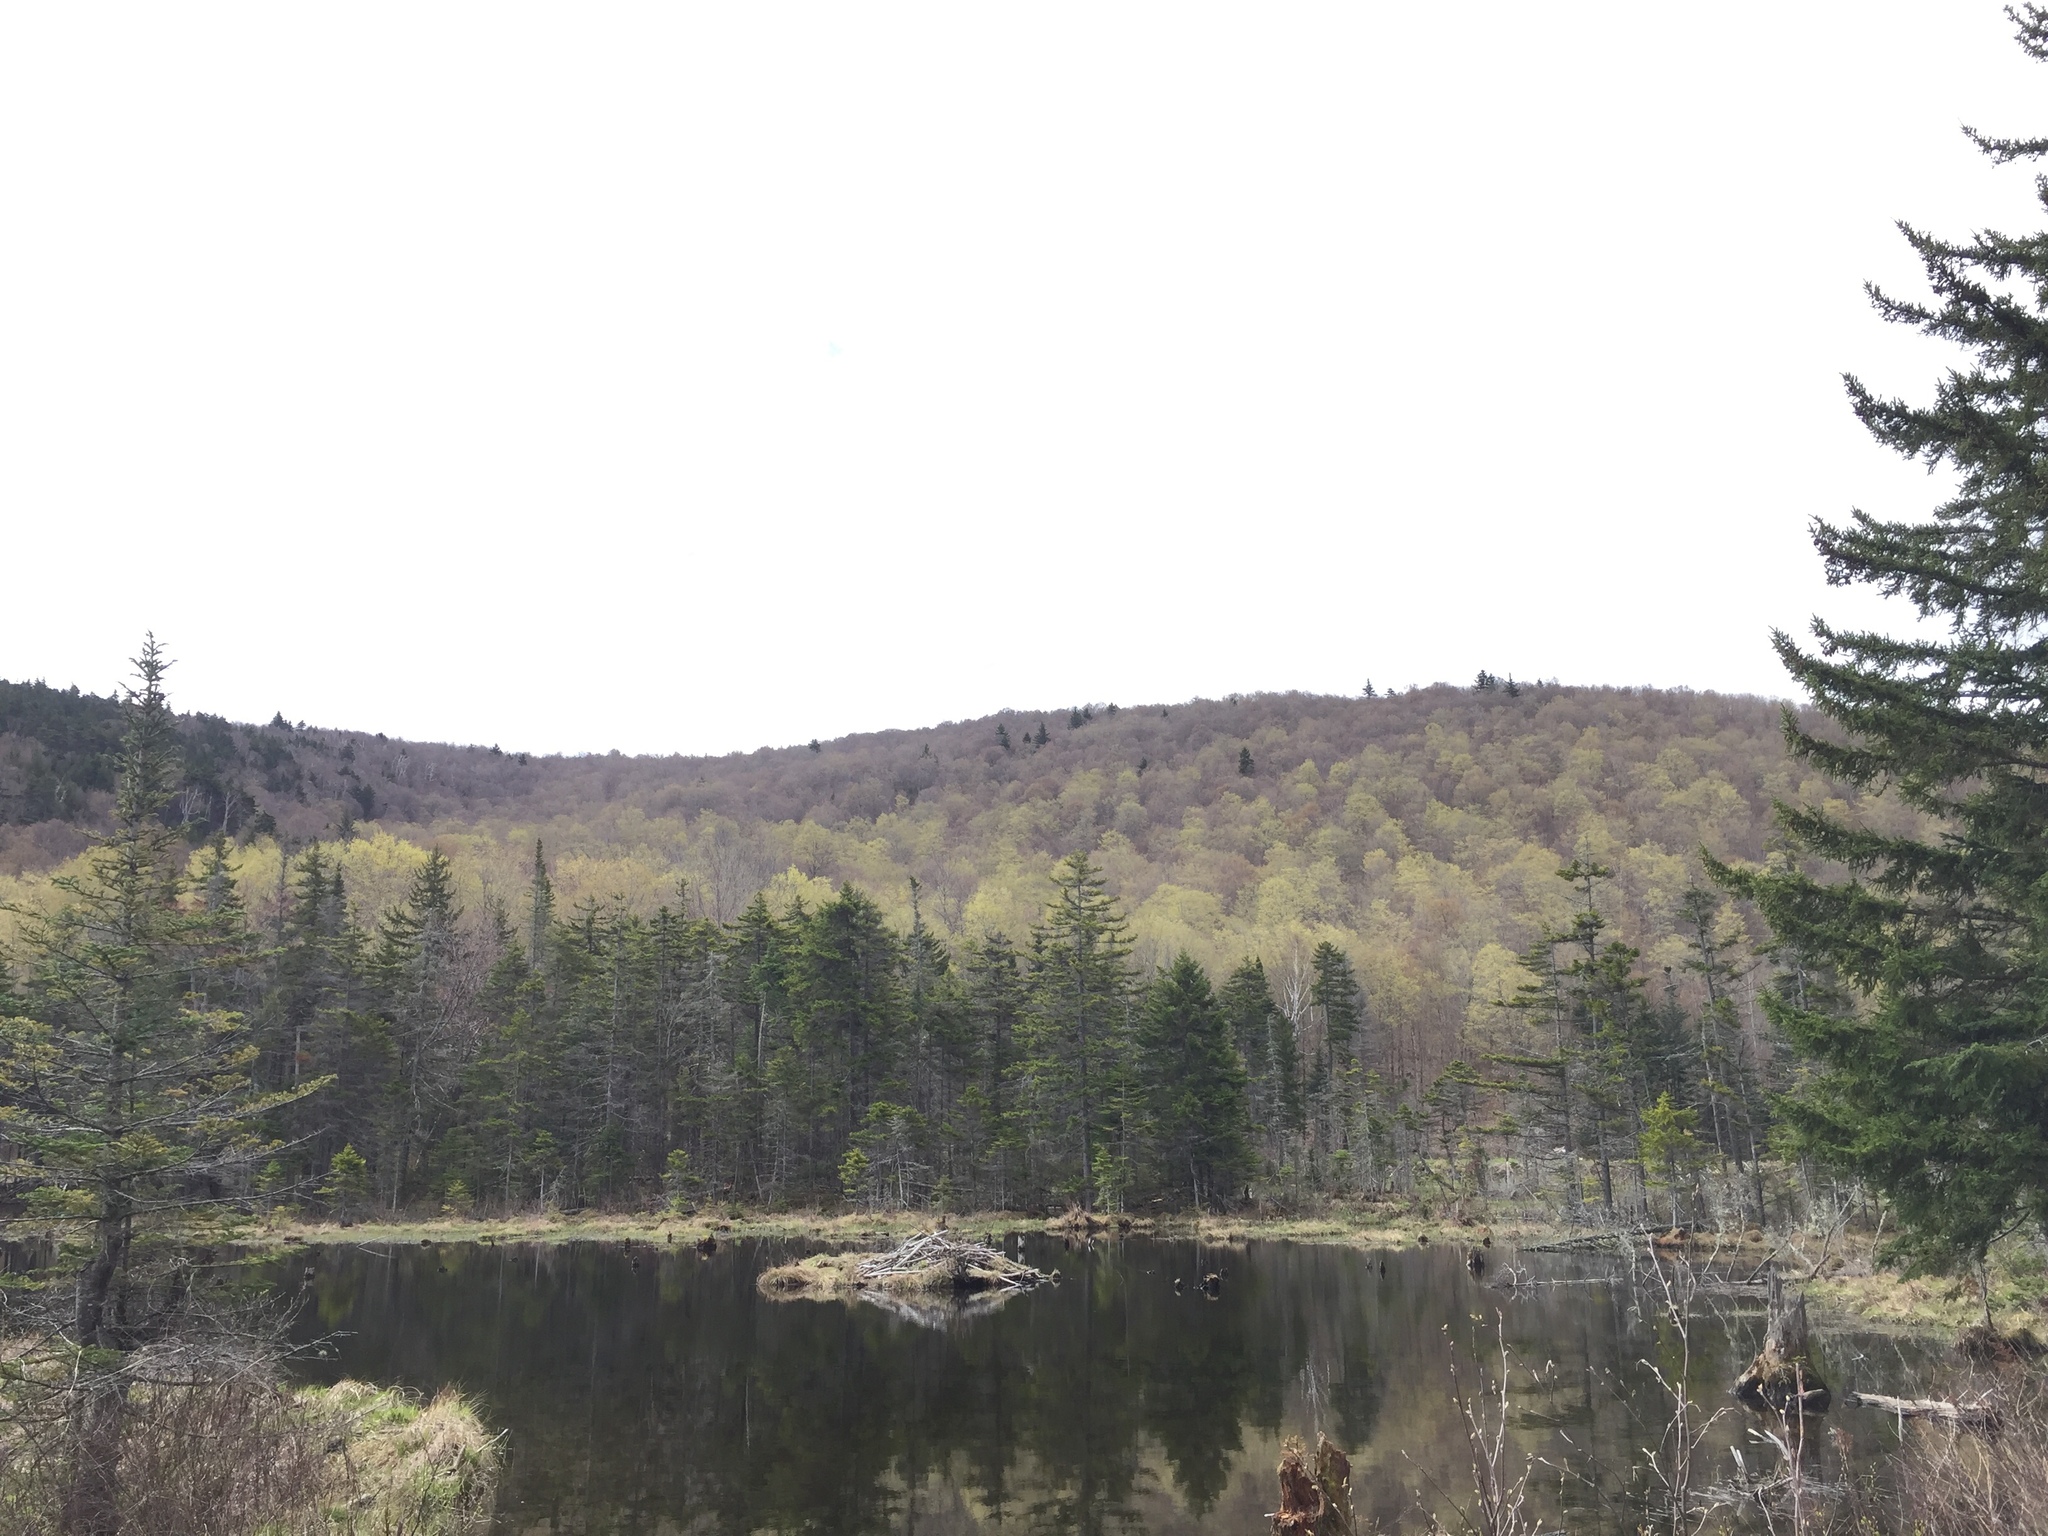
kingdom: Plantae
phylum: Tracheophyta
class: Pinopsida
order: Pinales
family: Pinaceae
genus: Picea
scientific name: Picea rubens
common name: Red spruce
